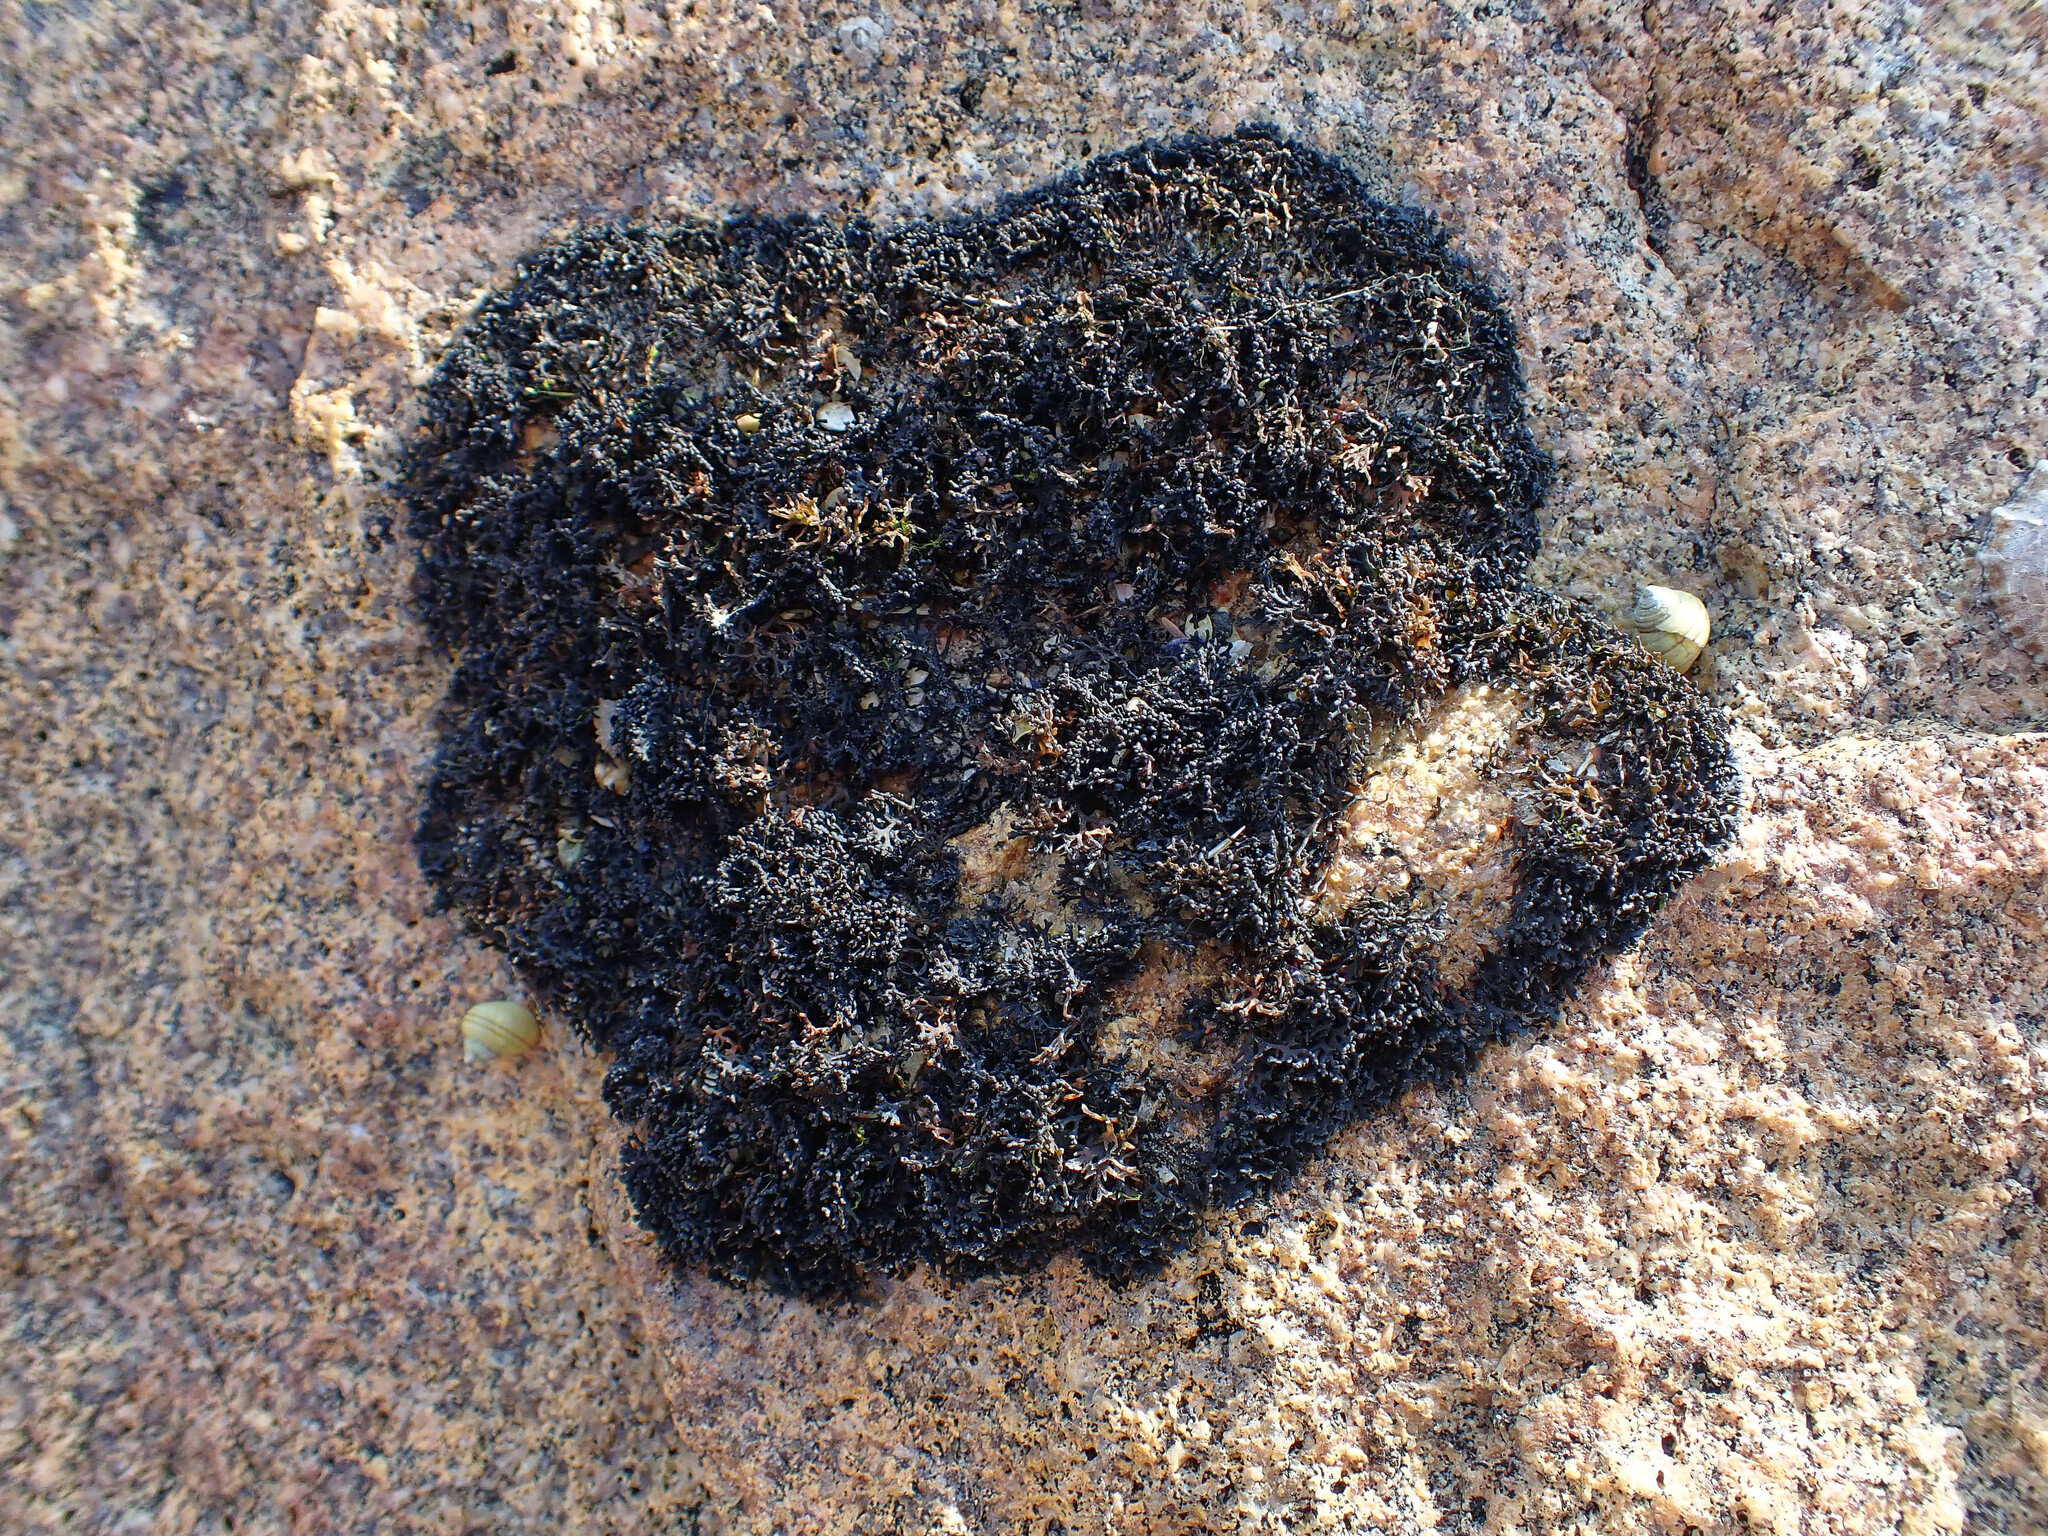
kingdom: Fungi
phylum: Ascomycota
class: Lichinomycetes
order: Lichinales
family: Lichinaceae
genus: Lichina
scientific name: Lichina pygmaea
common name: Black lichen
